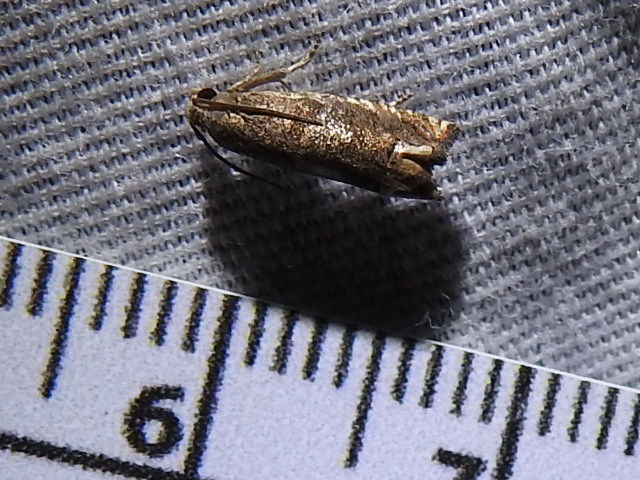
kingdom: Animalia
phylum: Arthropoda
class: Insecta
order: Lepidoptera
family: Tortricidae
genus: Epiblema
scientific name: Epiblema strenuana
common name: Ragweed borer moth
